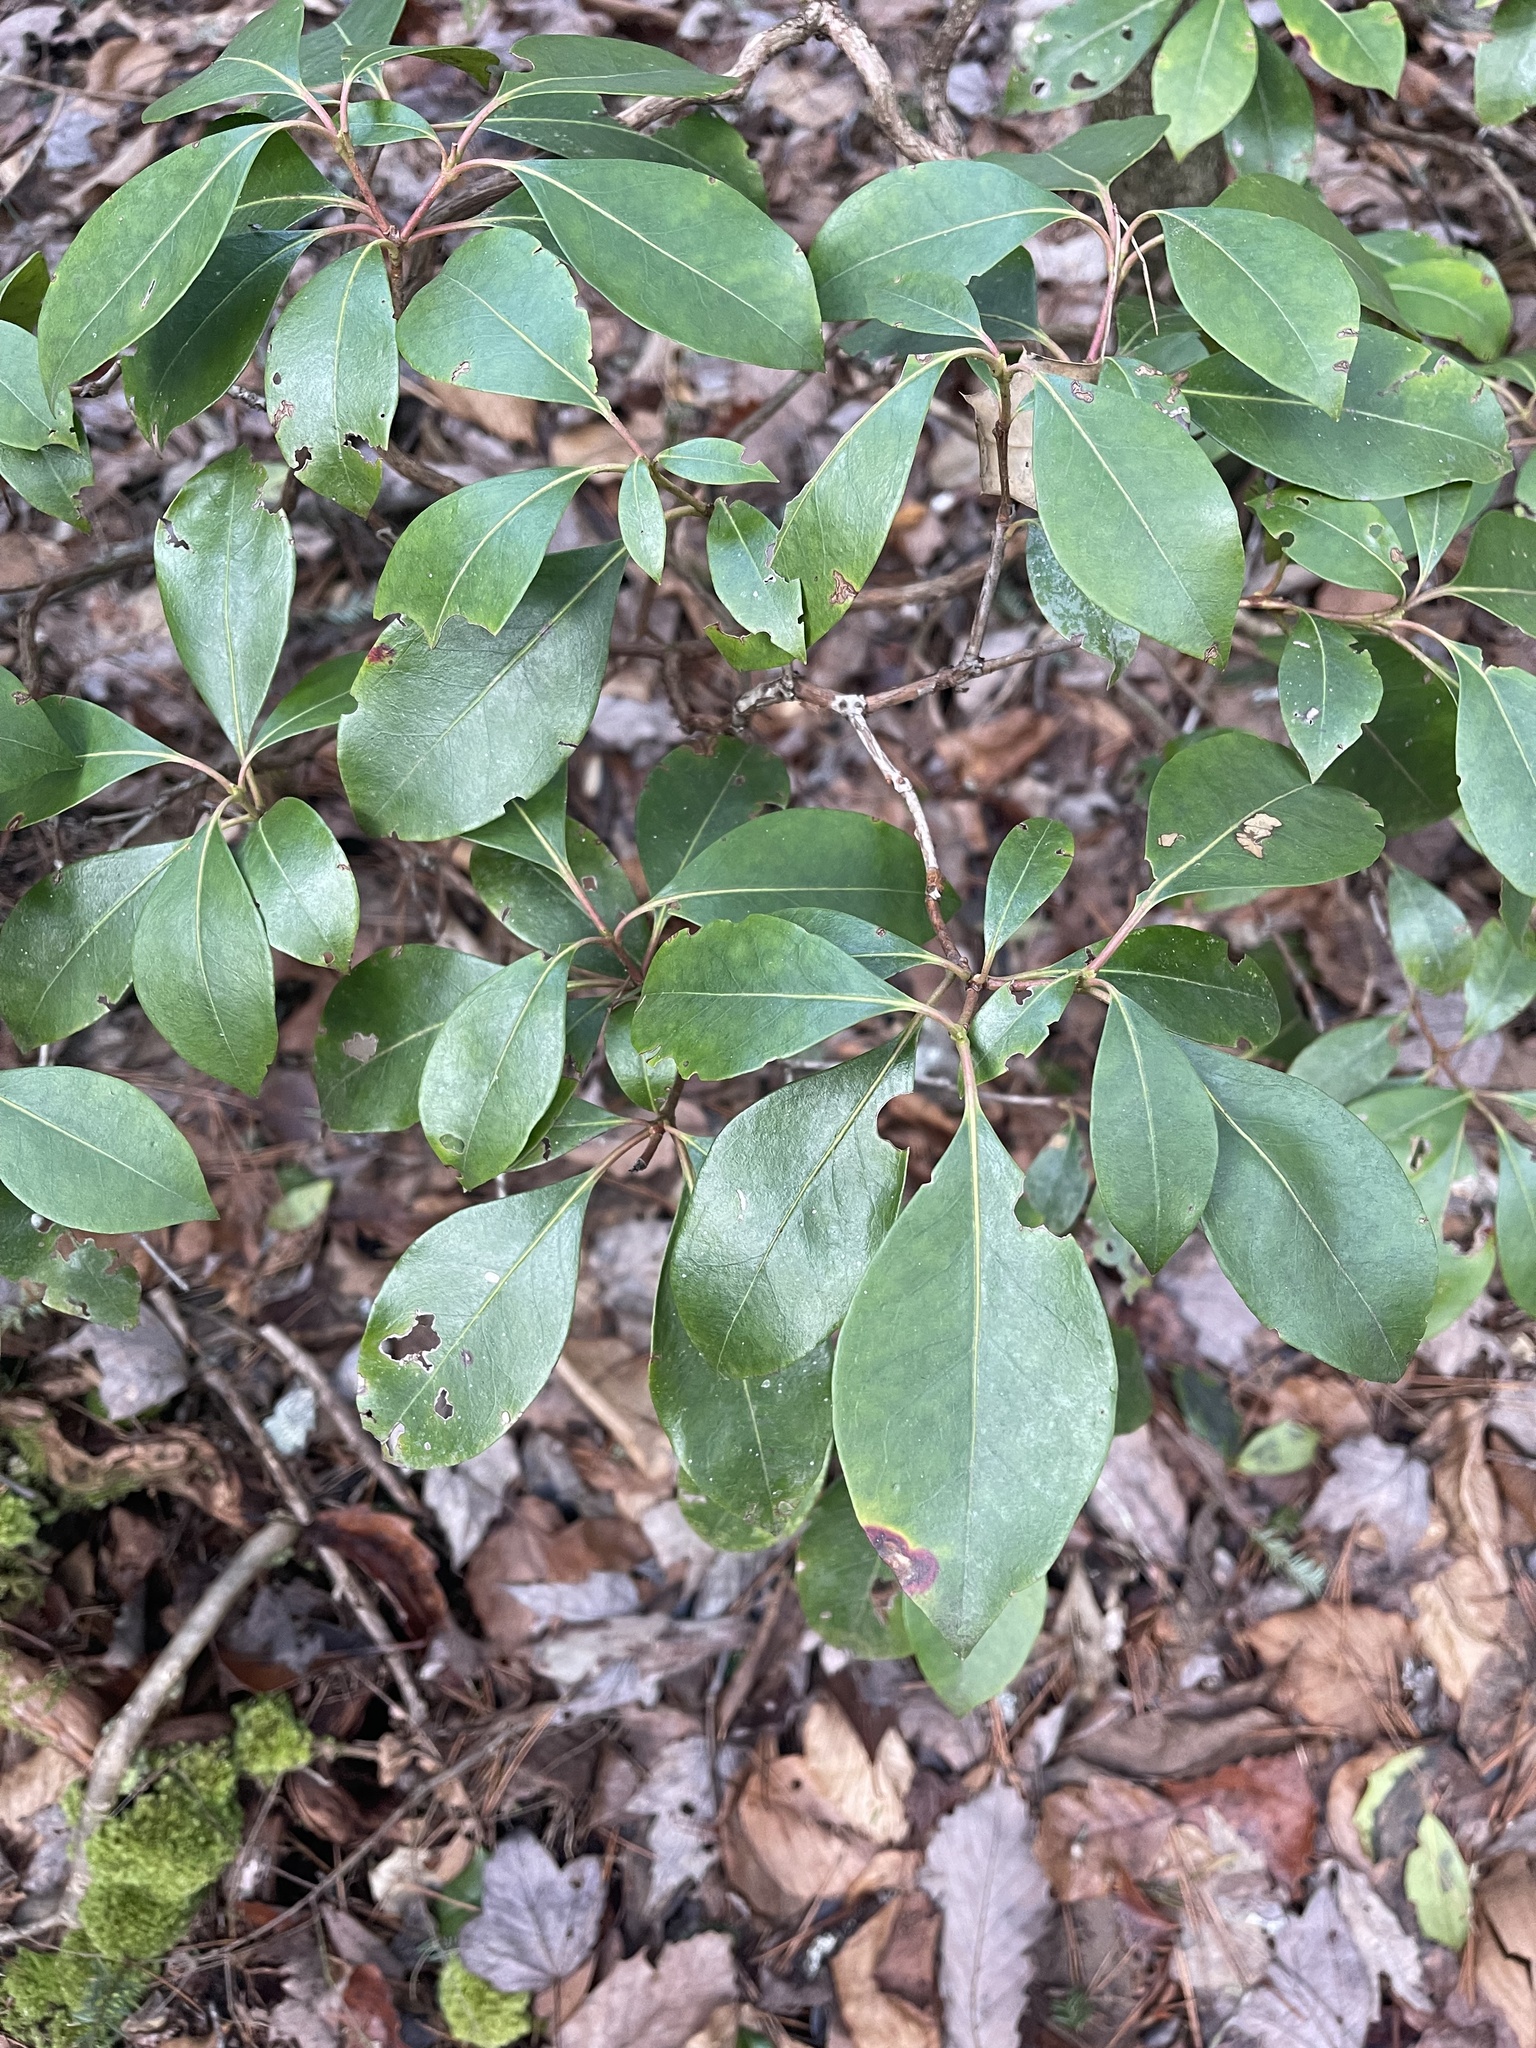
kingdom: Plantae
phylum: Tracheophyta
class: Magnoliopsida
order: Ericales
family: Ericaceae
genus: Kalmia
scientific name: Kalmia latifolia
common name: Mountain-laurel
